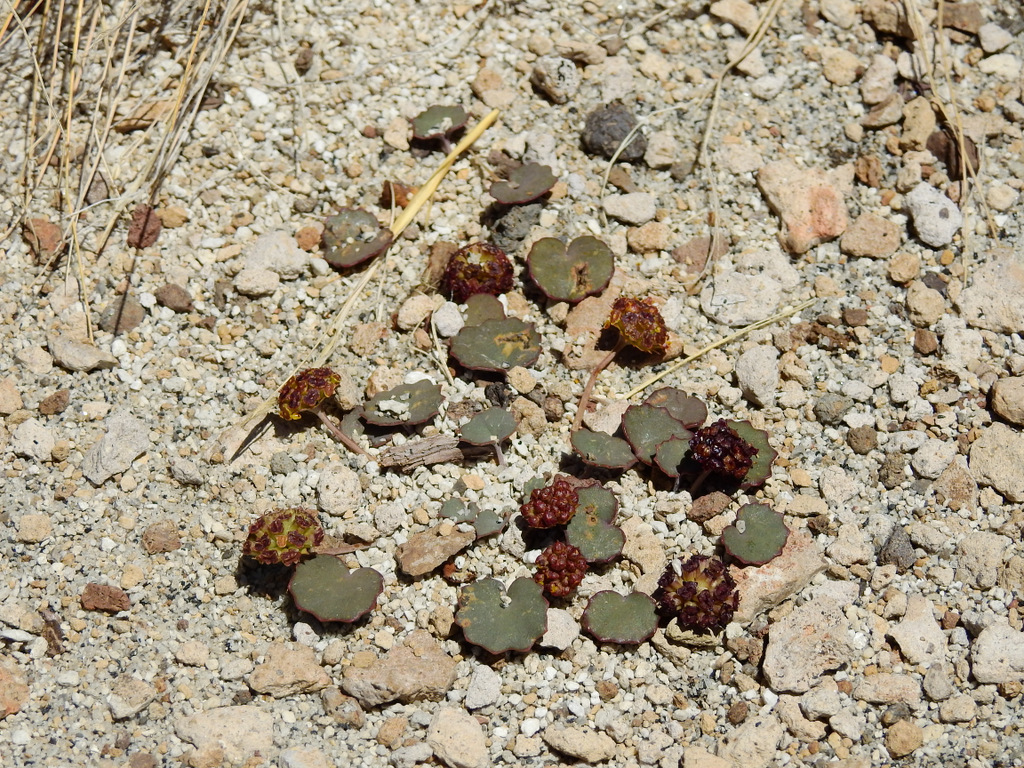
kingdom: Plantae
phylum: Tracheophyta
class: Magnoliopsida
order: Apiales
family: Apiaceae
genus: Pozoa
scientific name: Pozoa coriacea
